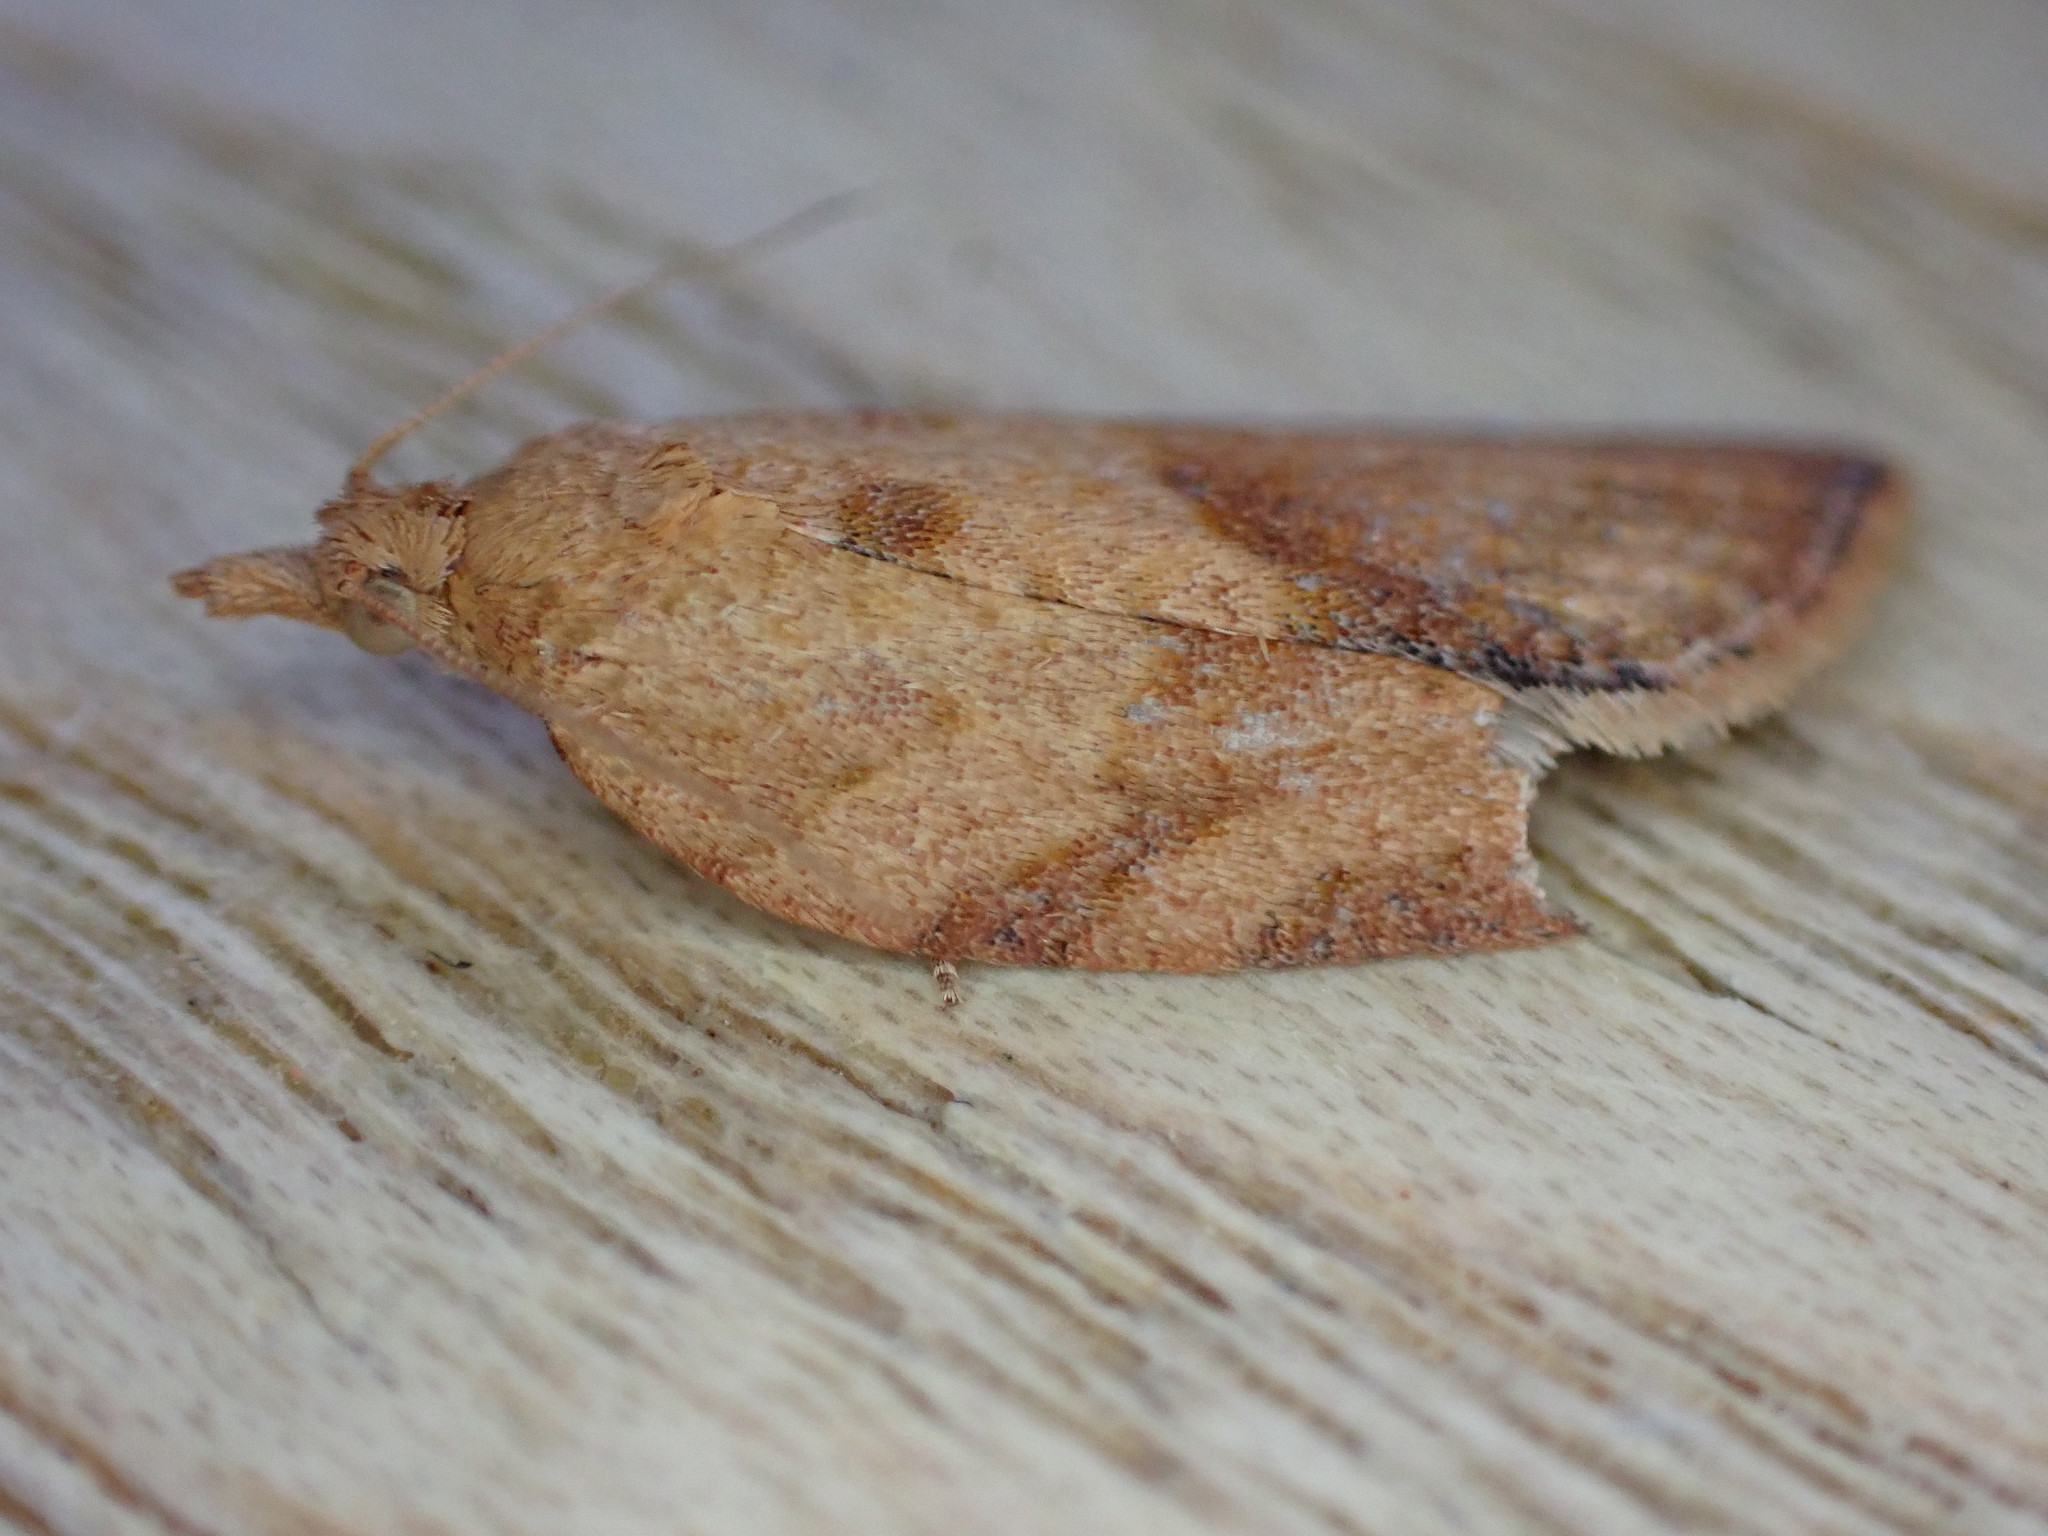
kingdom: Animalia
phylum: Arthropoda
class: Insecta
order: Lepidoptera
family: Tortricidae
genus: Epiphyas
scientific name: Epiphyas postvittana
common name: Light brown apple moth
